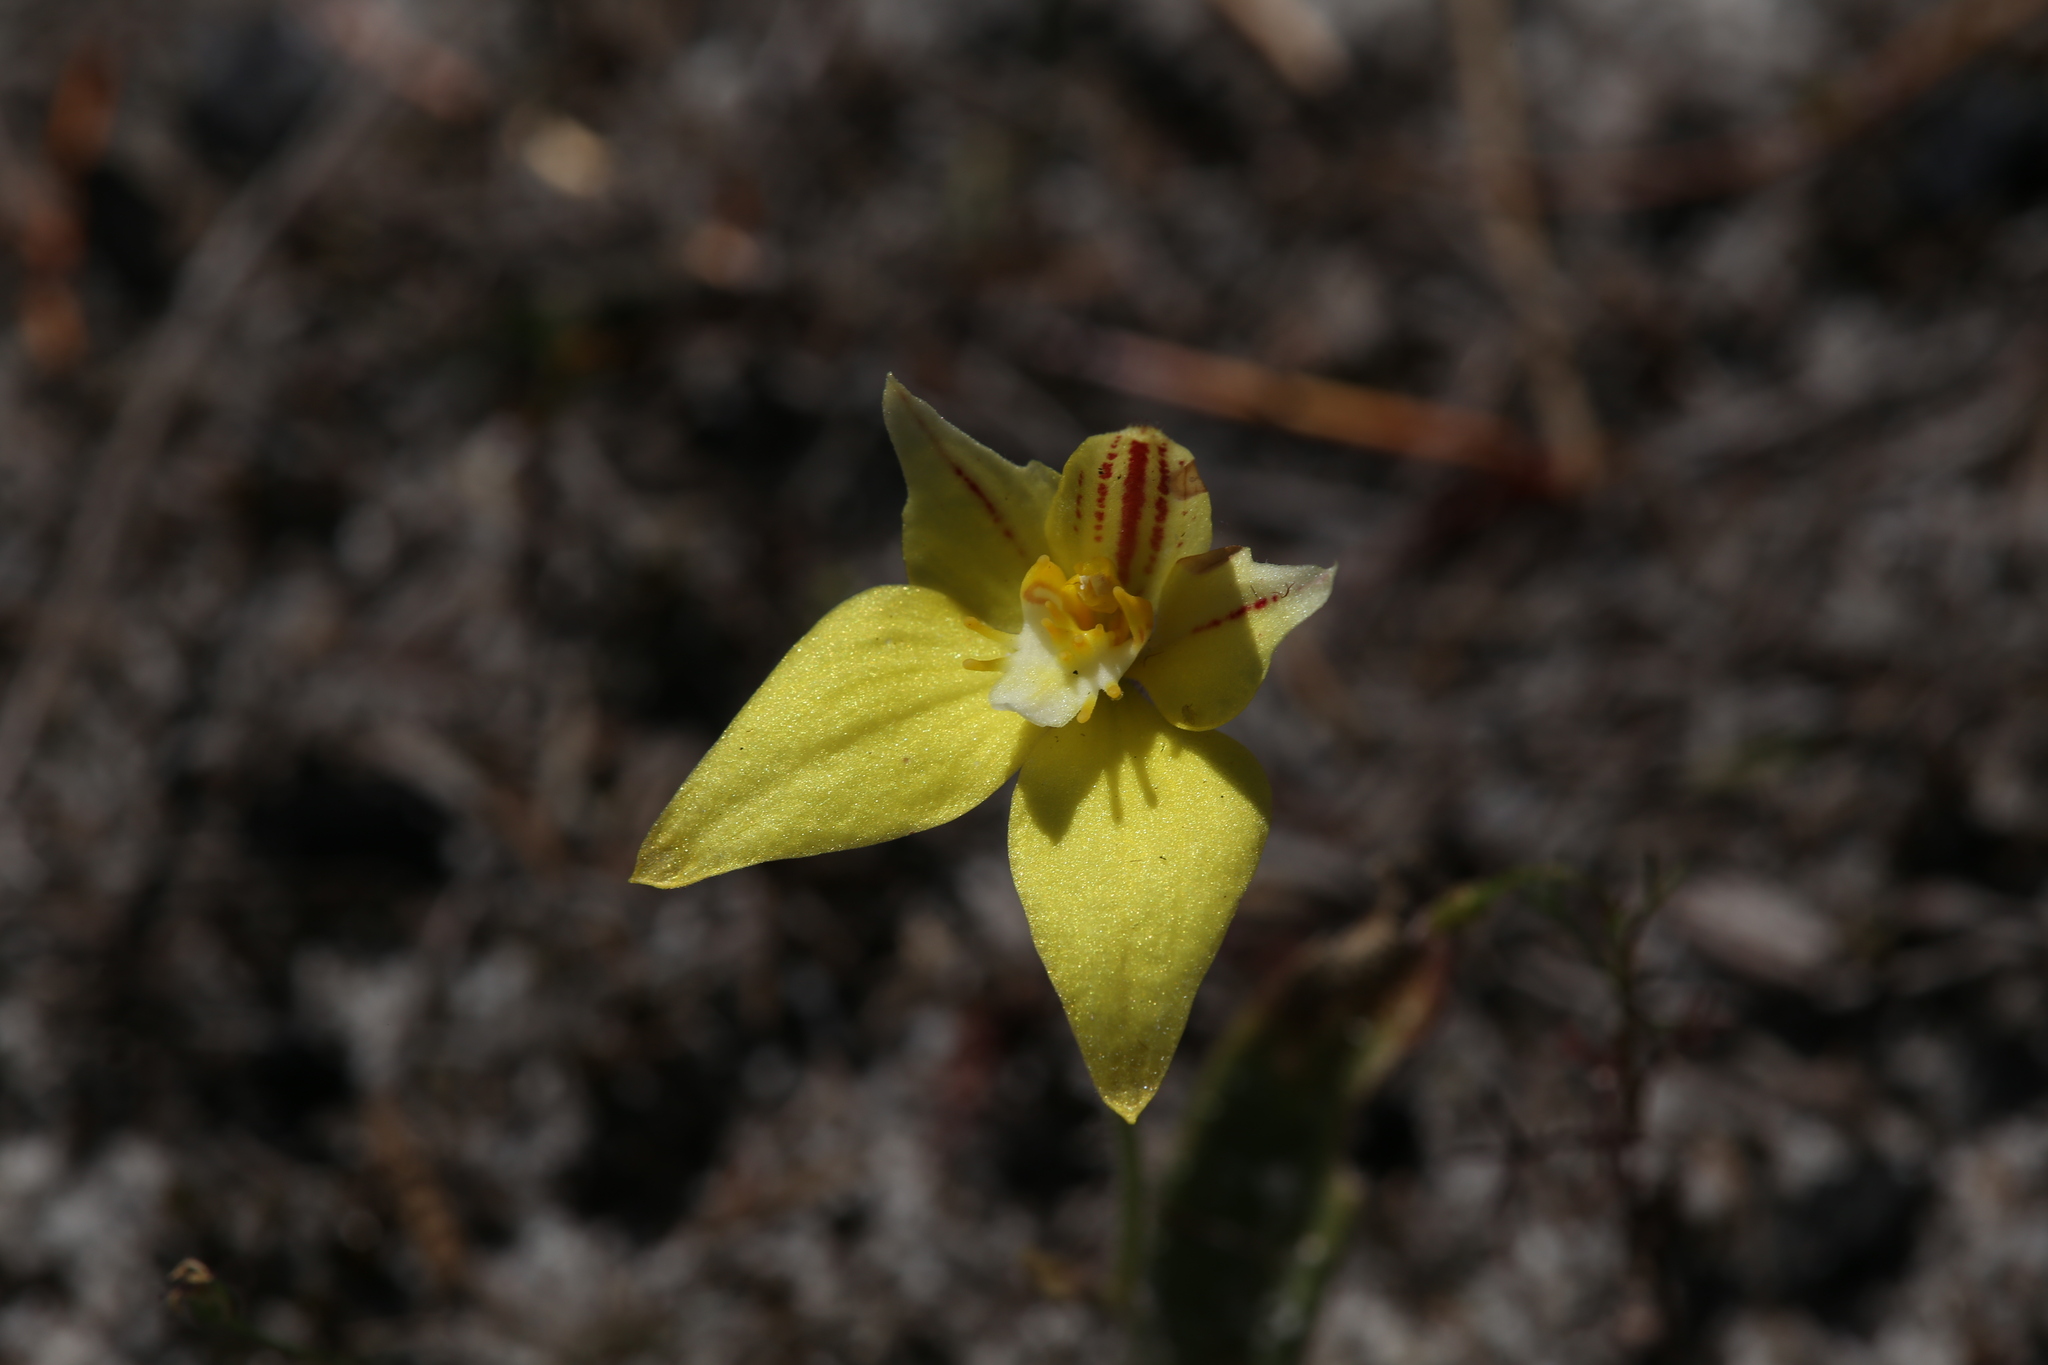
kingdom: Plantae
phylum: Tracheophyta
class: Liliopsida
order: Asparagales
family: Orchidaceae
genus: Caladenia
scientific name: Caladenia flava
